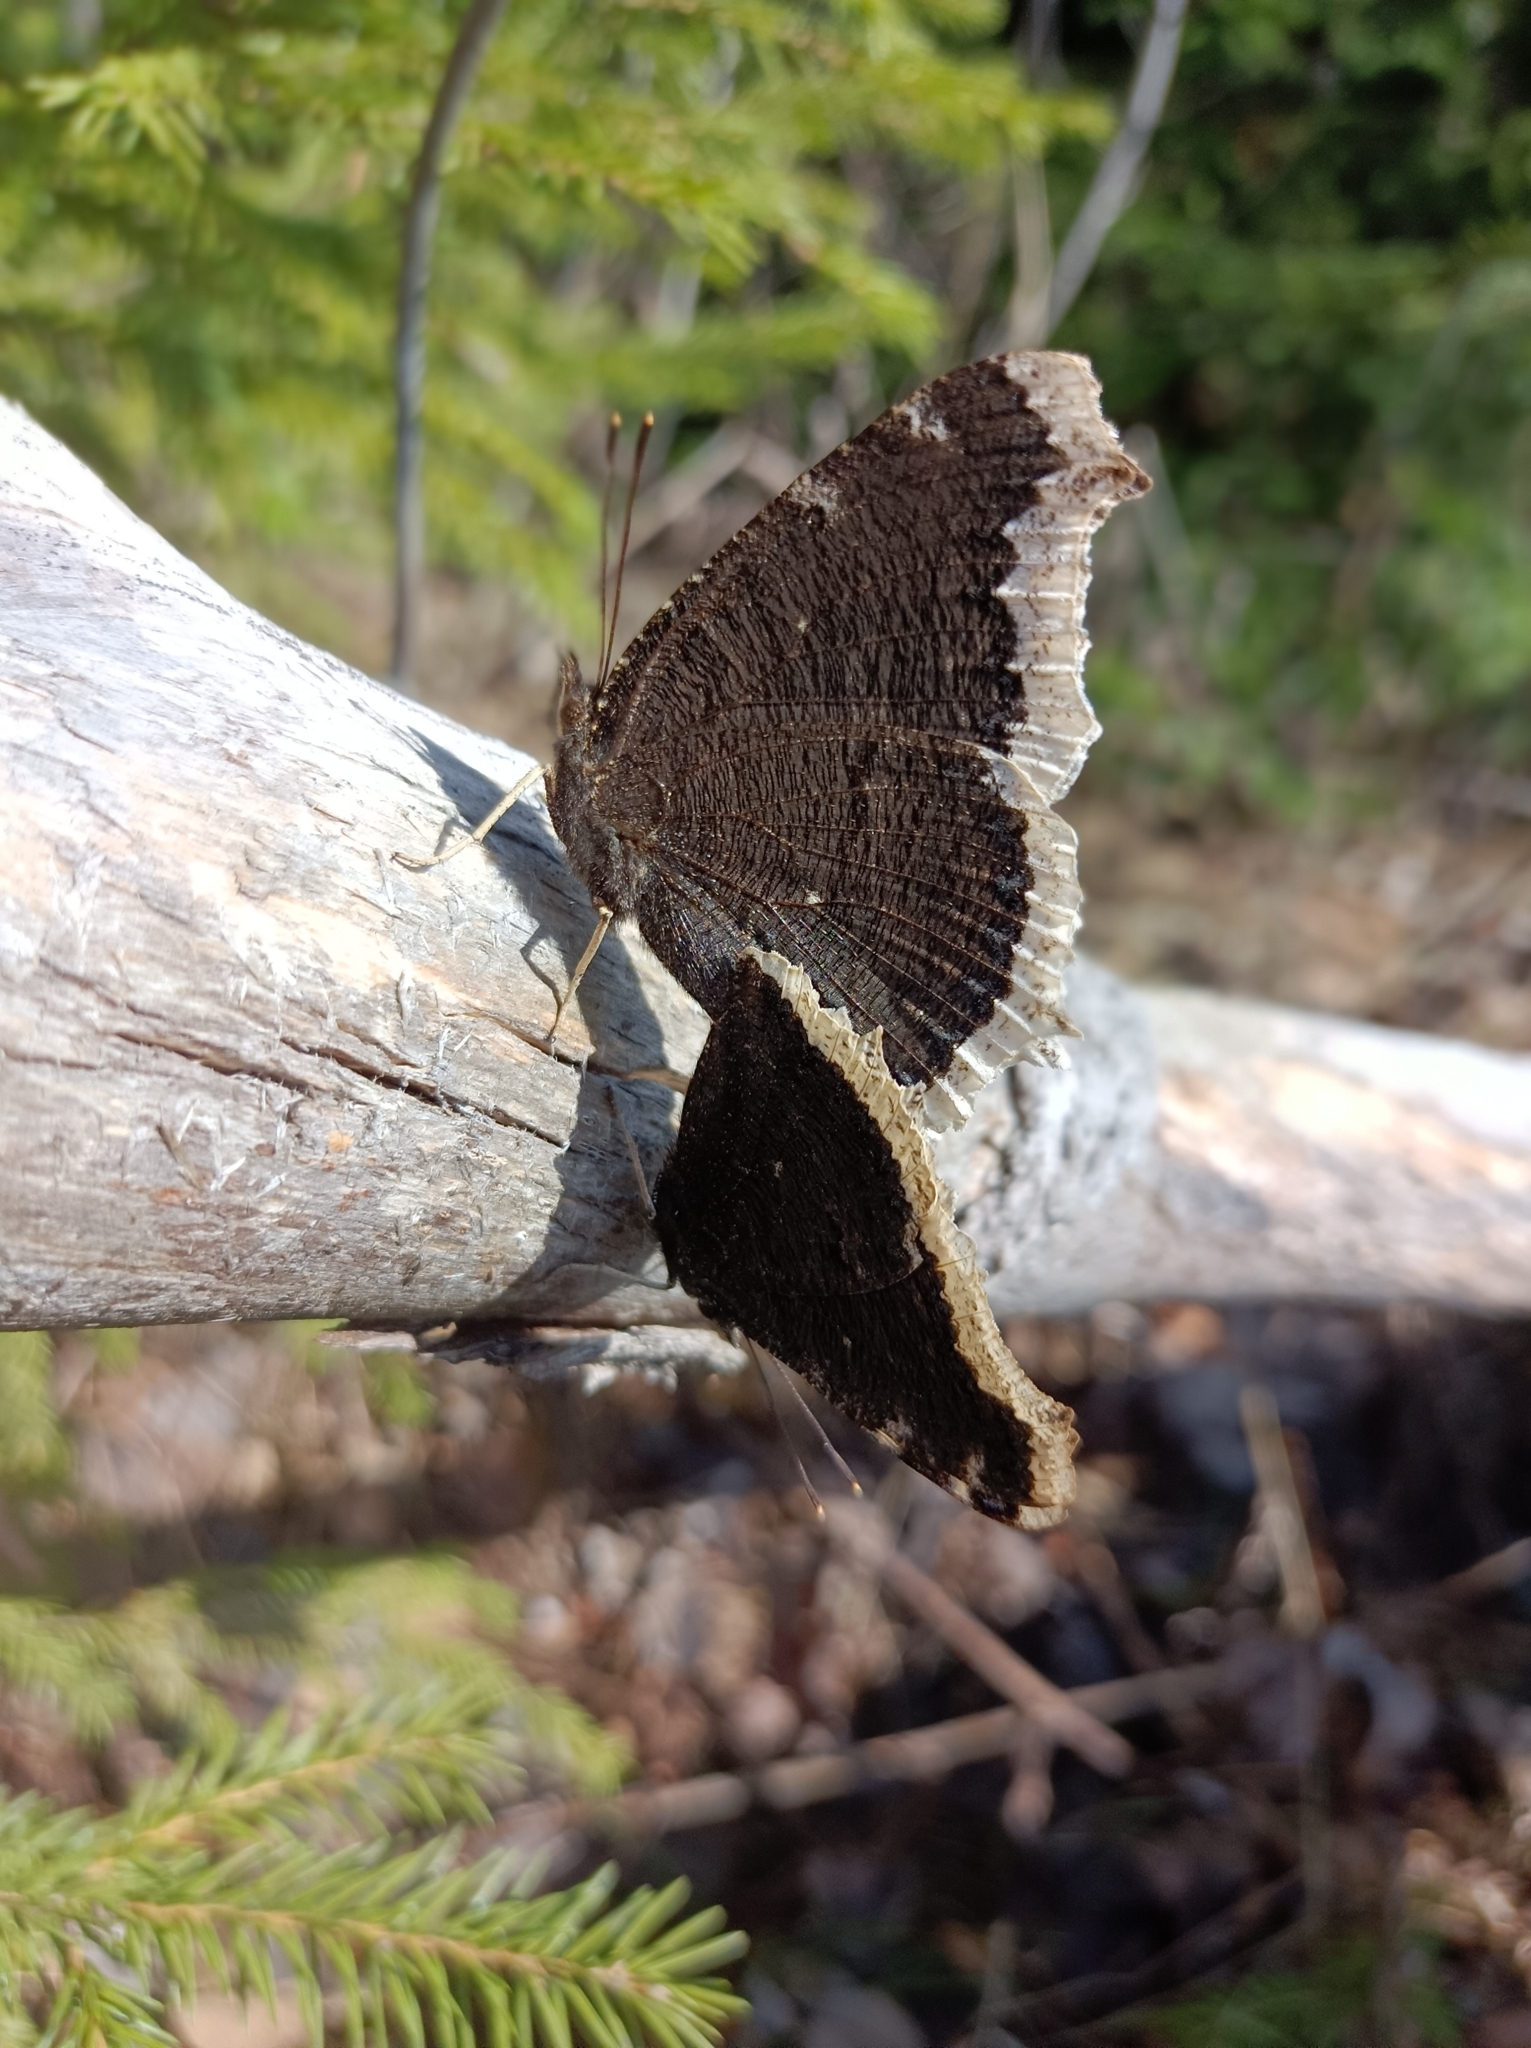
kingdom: Animalia
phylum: Arthropoda
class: Insecta
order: Lepidoptera
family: Nymphalidae
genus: Nymphalis
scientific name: Nymphalis antiopa
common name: Camberwell beauty
